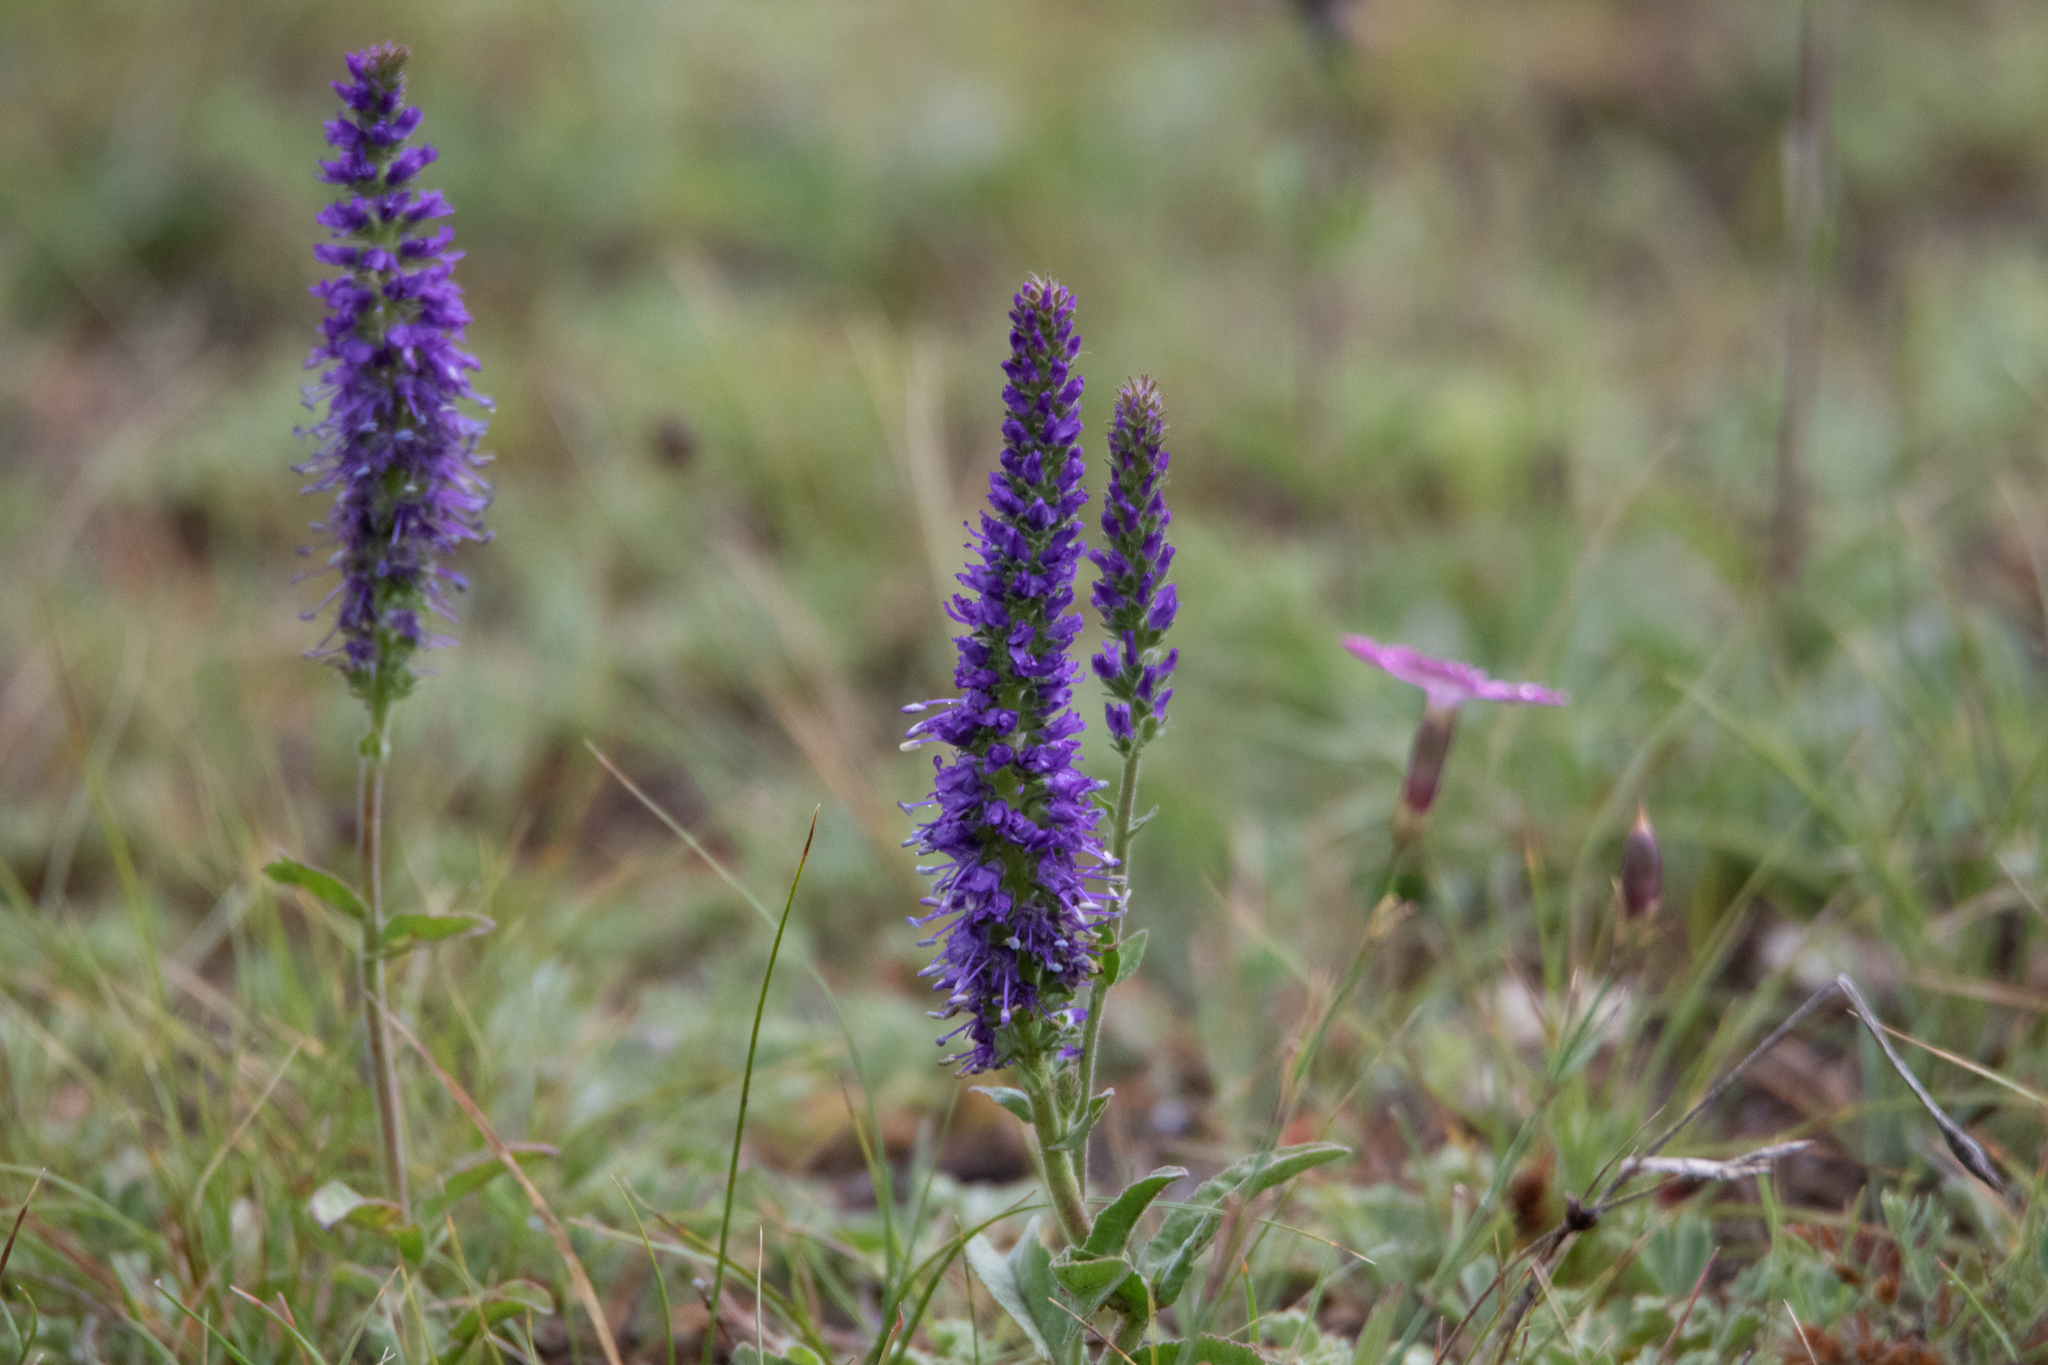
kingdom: Plantae
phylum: Tracheophyta
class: Magnoliopsida
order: Lamiales
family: Plantaginaceae
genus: Veronica
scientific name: Veronica porphyriana
